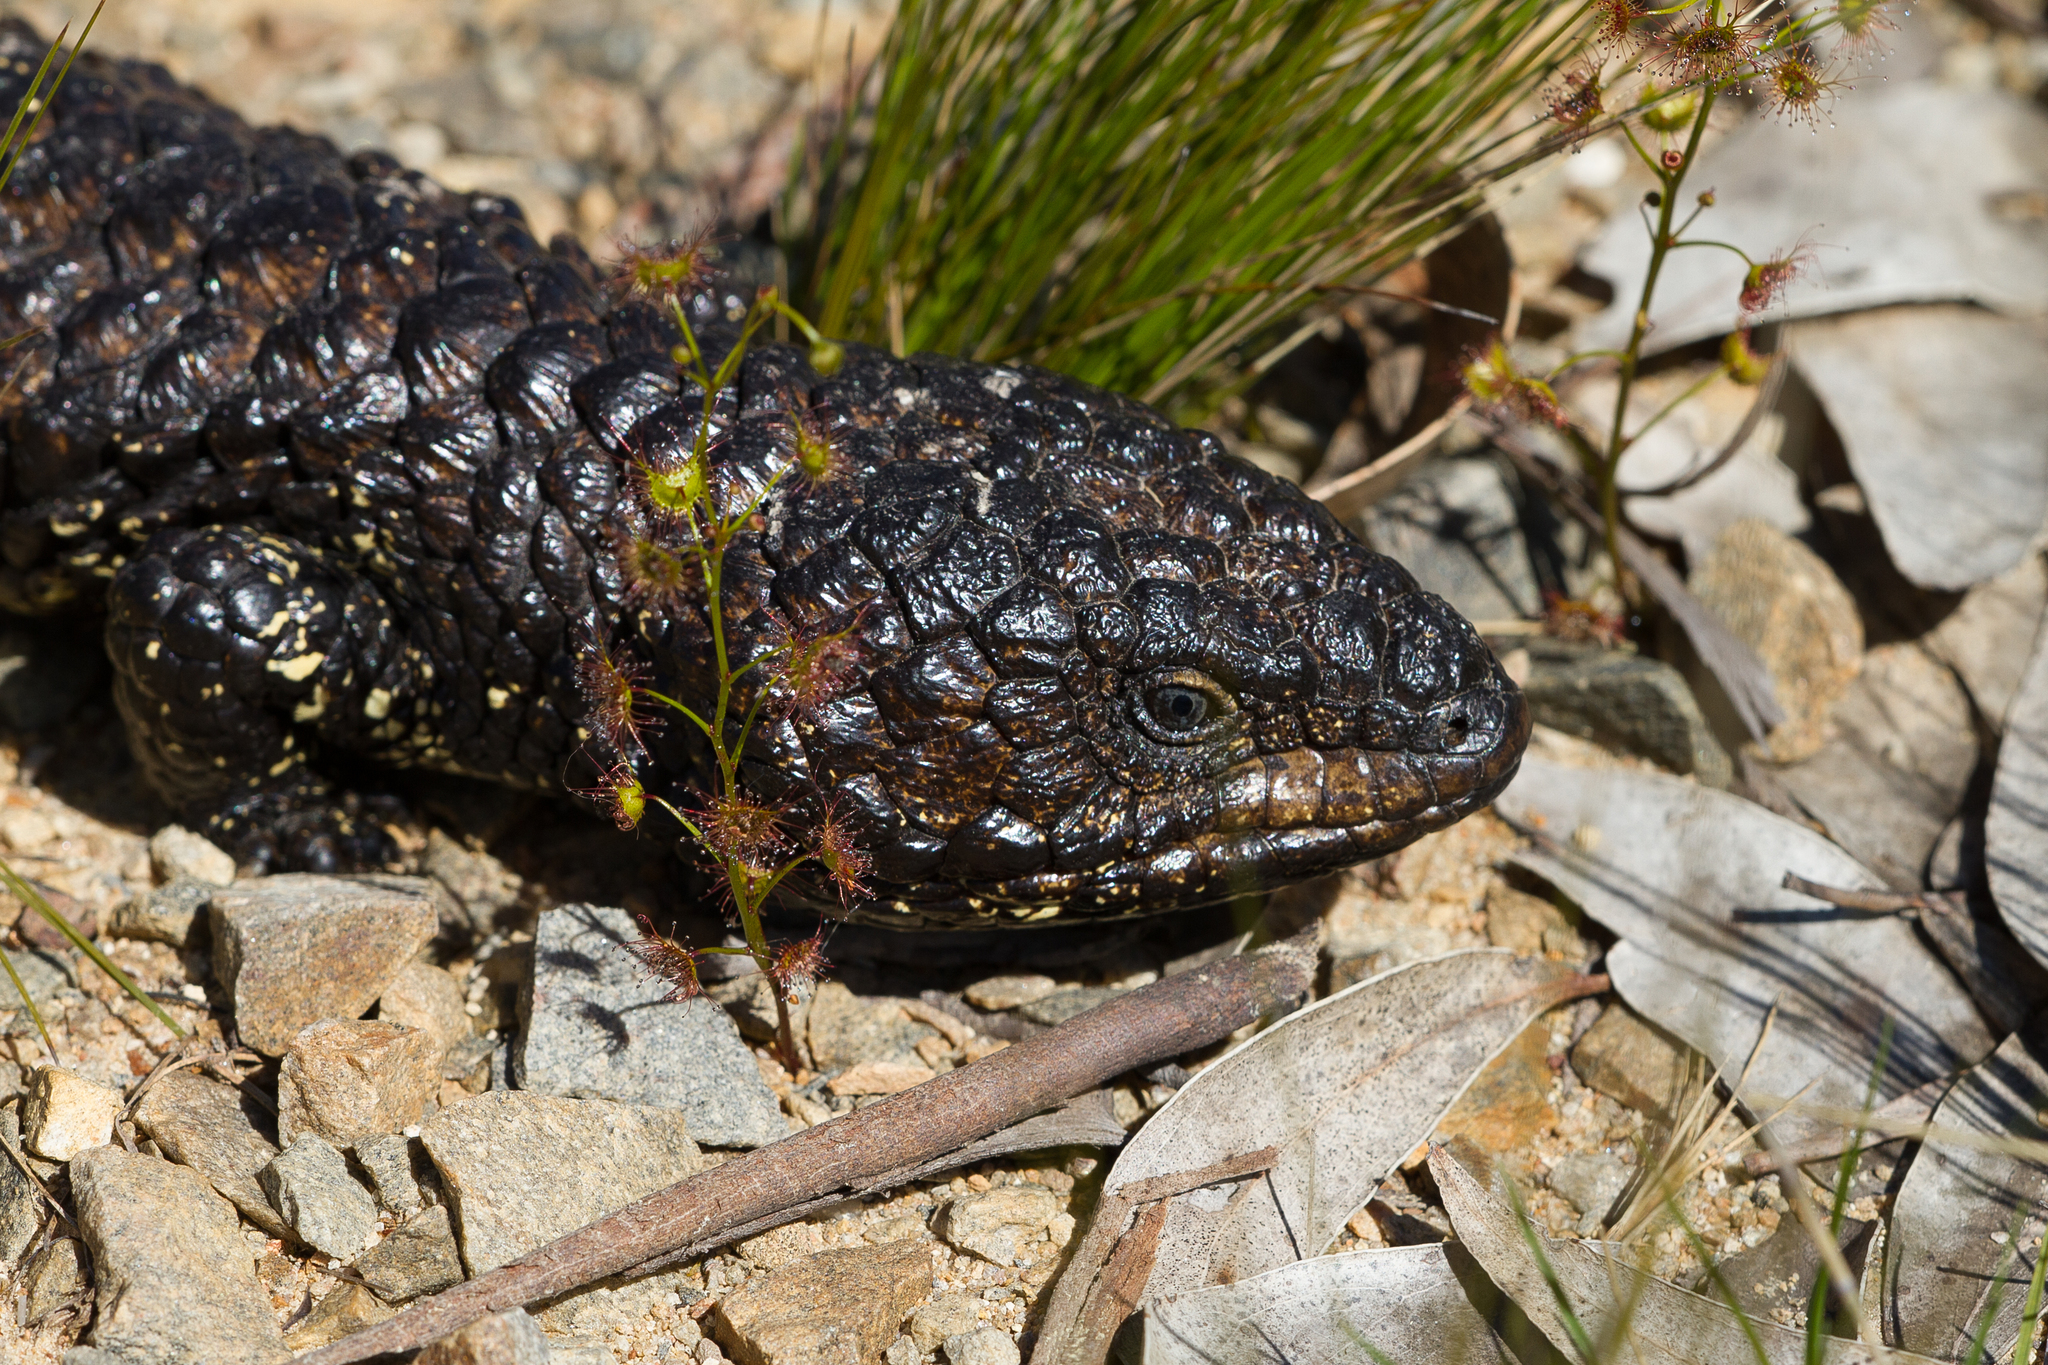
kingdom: Animalia
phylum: Chordata
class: Squamata
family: Scincidae
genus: Tiliqua
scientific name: Tiliqua rugosa
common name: Pinecone lizard
